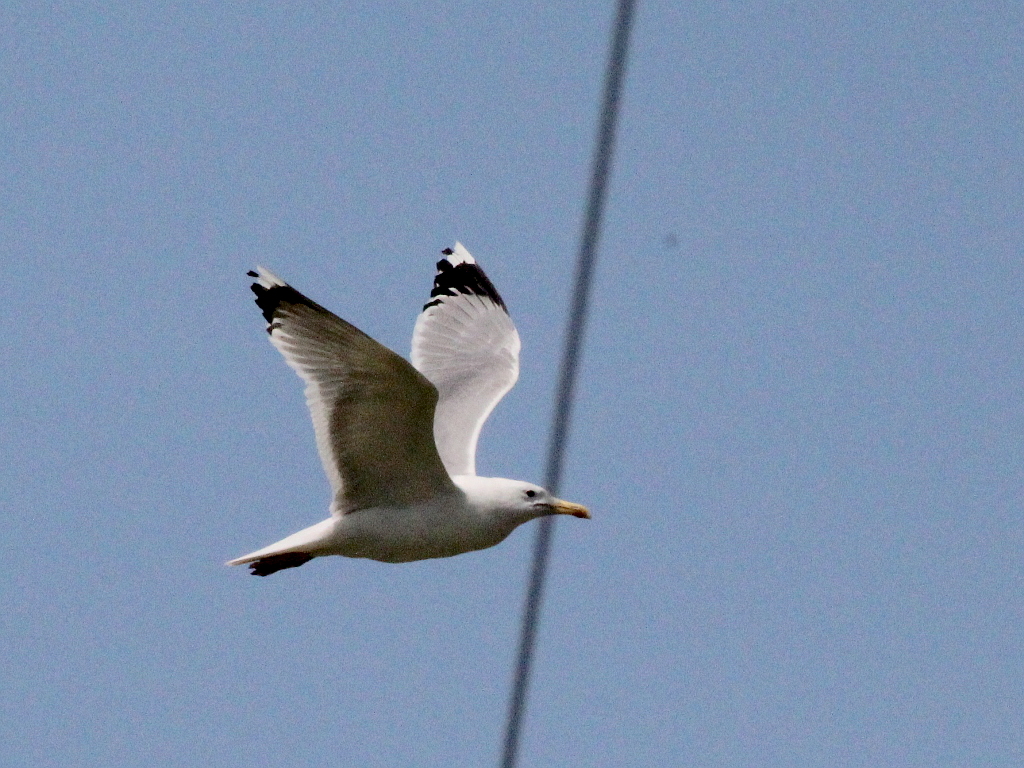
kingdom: Animalia
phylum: Chordata
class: Aves
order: Charadriiformes
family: Laridae
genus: Larus
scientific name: Larus cachinnans
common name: Caspian gull
